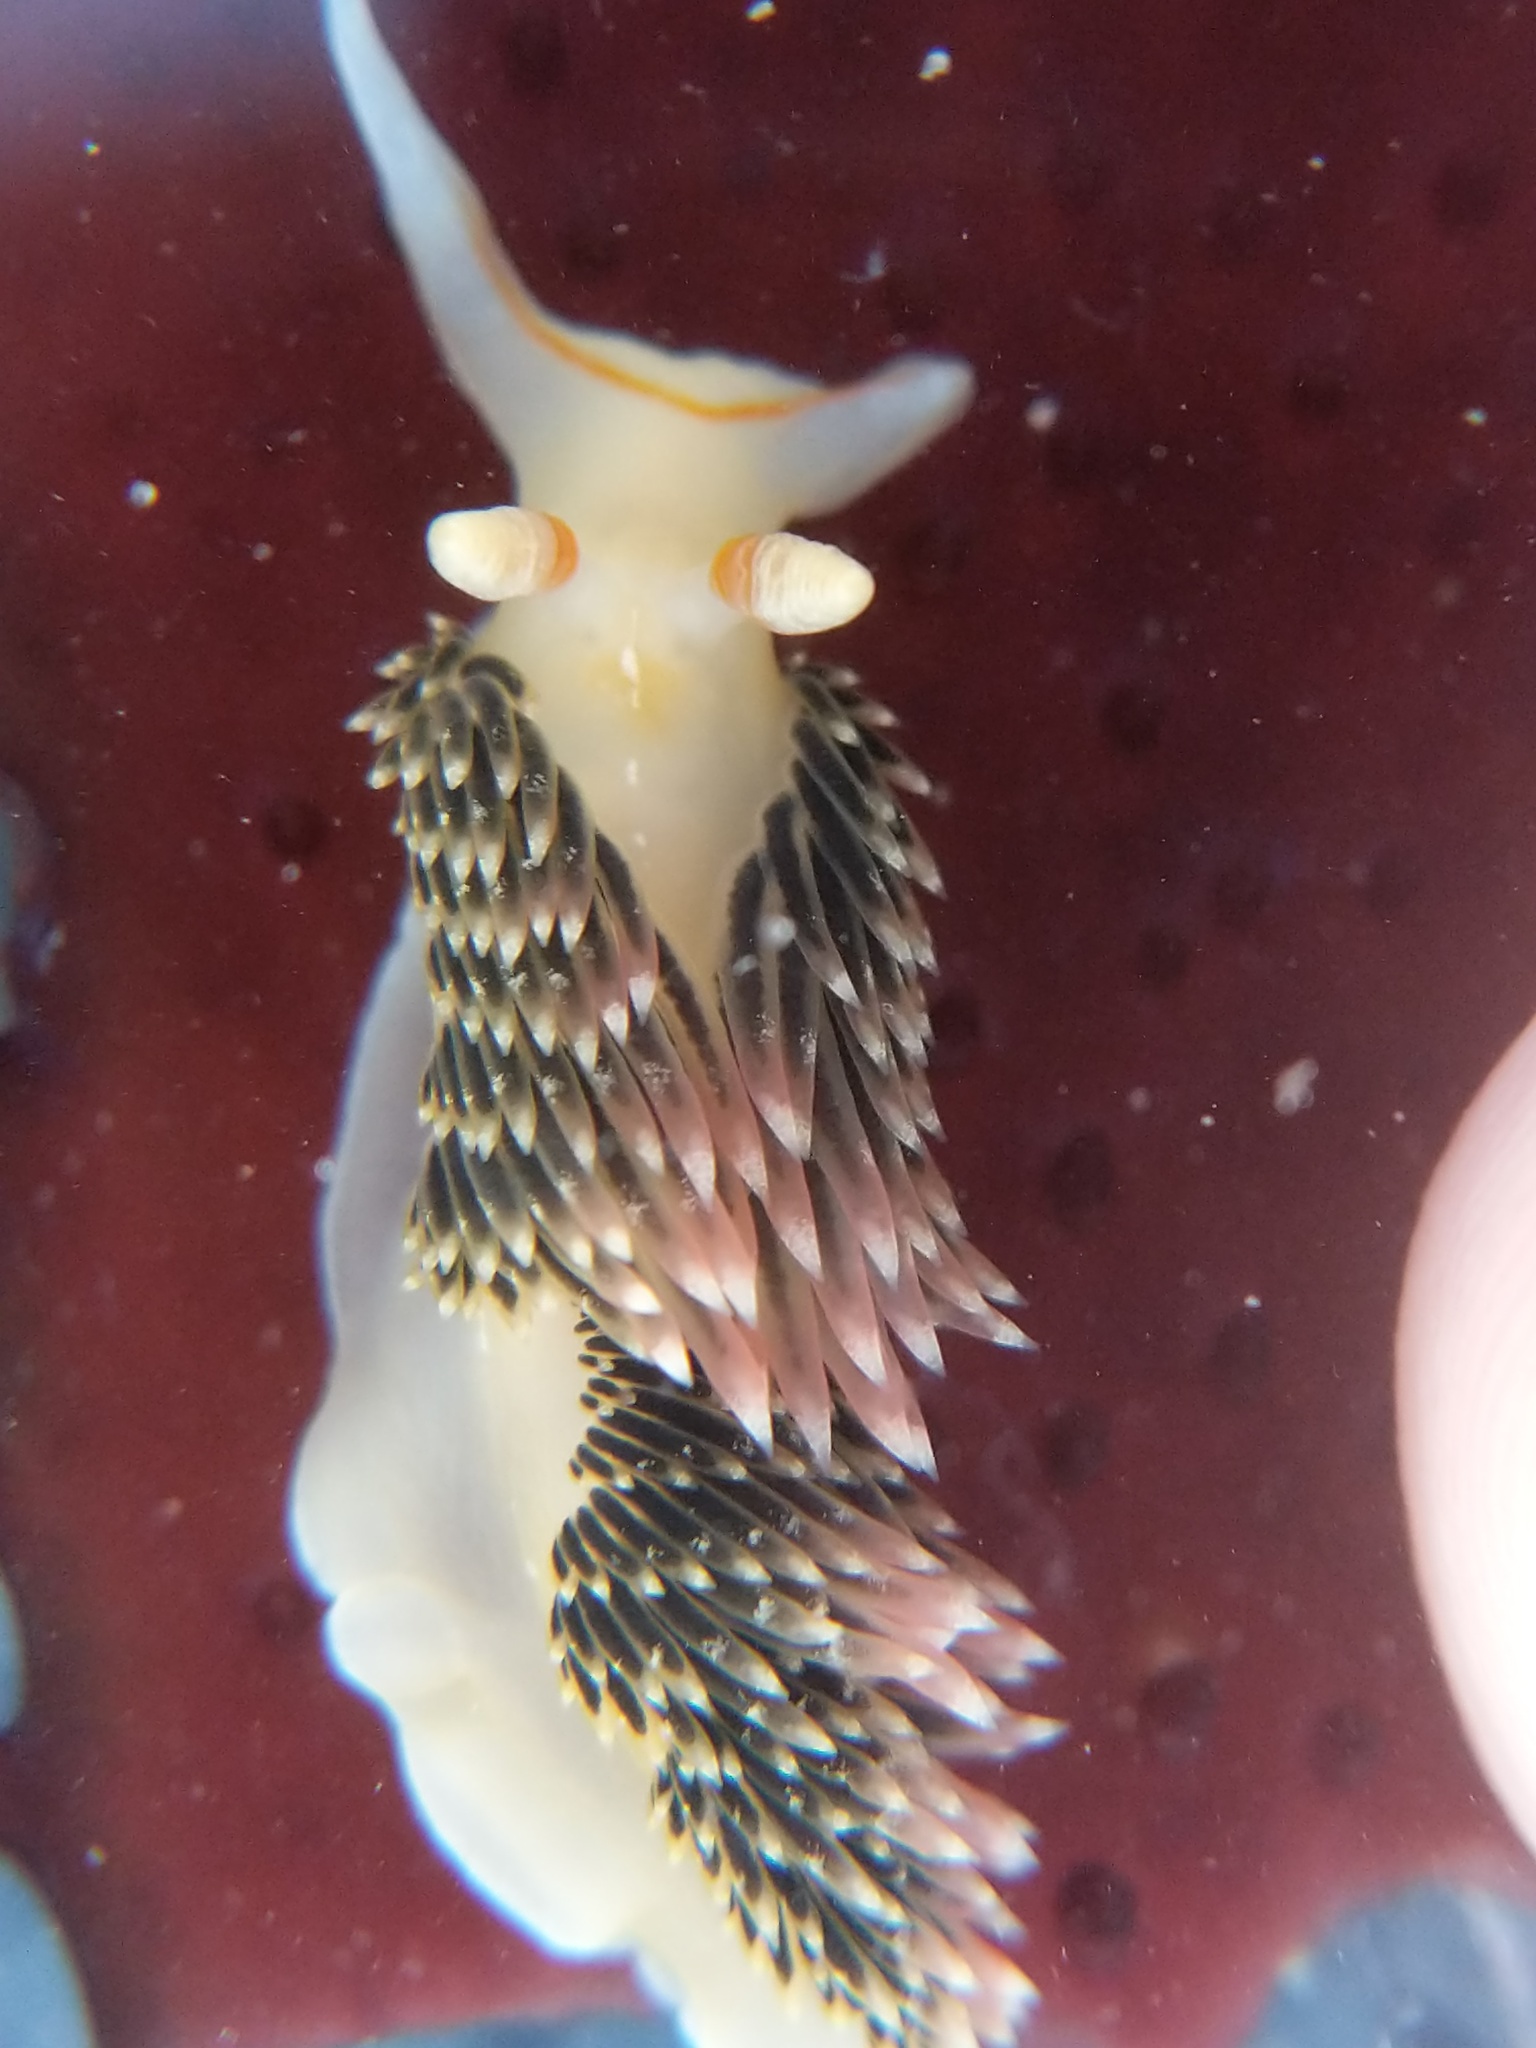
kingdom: Animalia
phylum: Mollusca
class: Gastropoda
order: Nudibranchia
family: Facelinidae
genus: Phidiana
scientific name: Phidiana hiltoni
